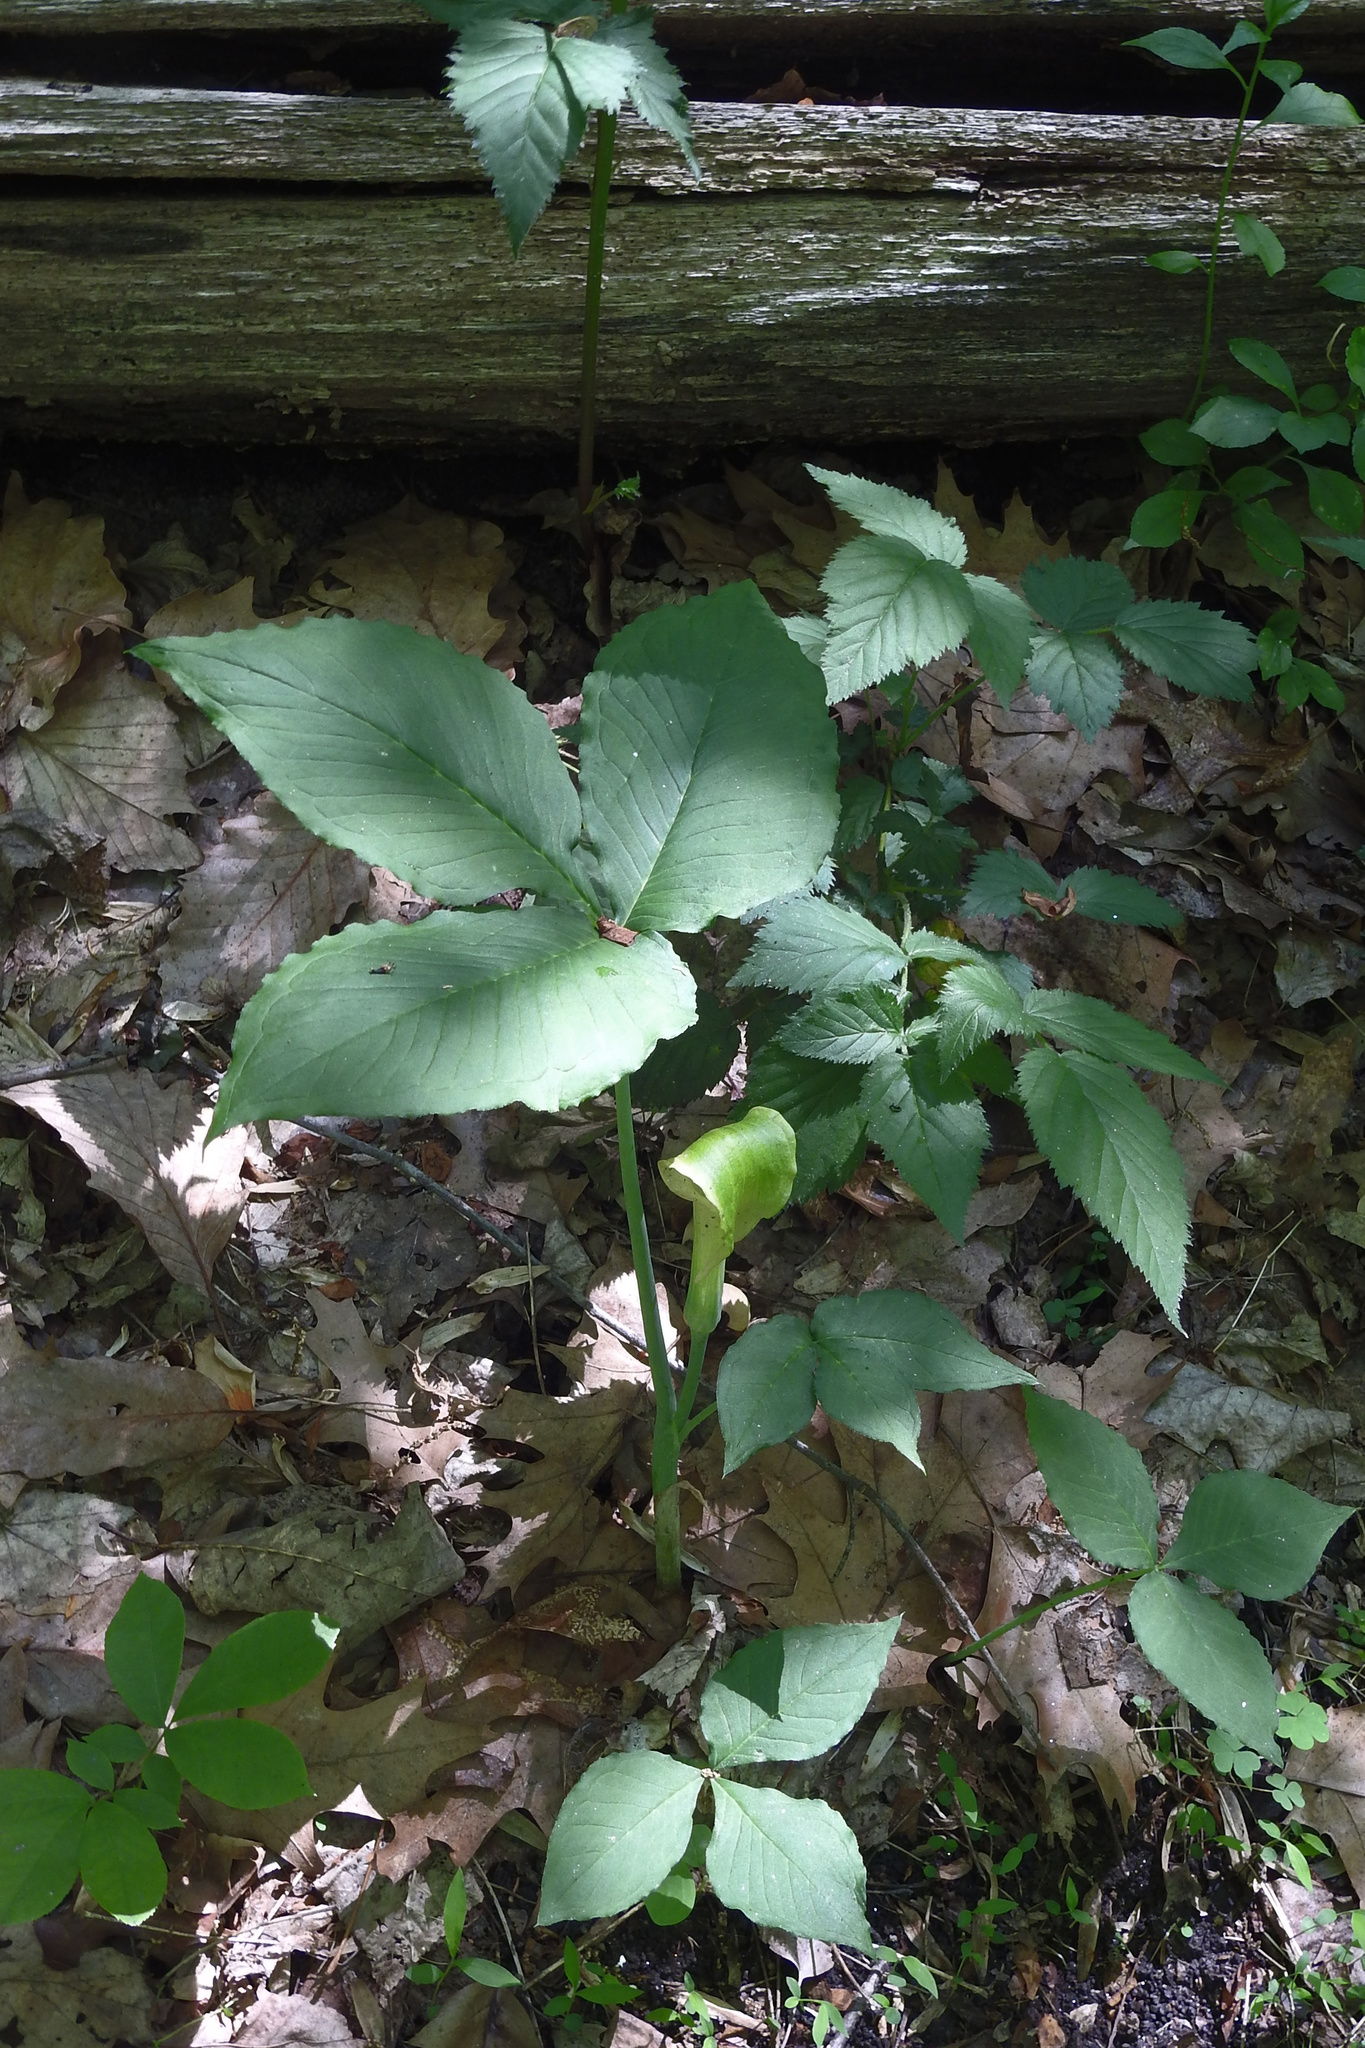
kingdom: Plantae
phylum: Tracheophyta
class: Liliopsida
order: Alismatales
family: Araceae
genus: Arisaema
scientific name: Arisaema triphyllum
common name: Jack-in-the-pulpit
